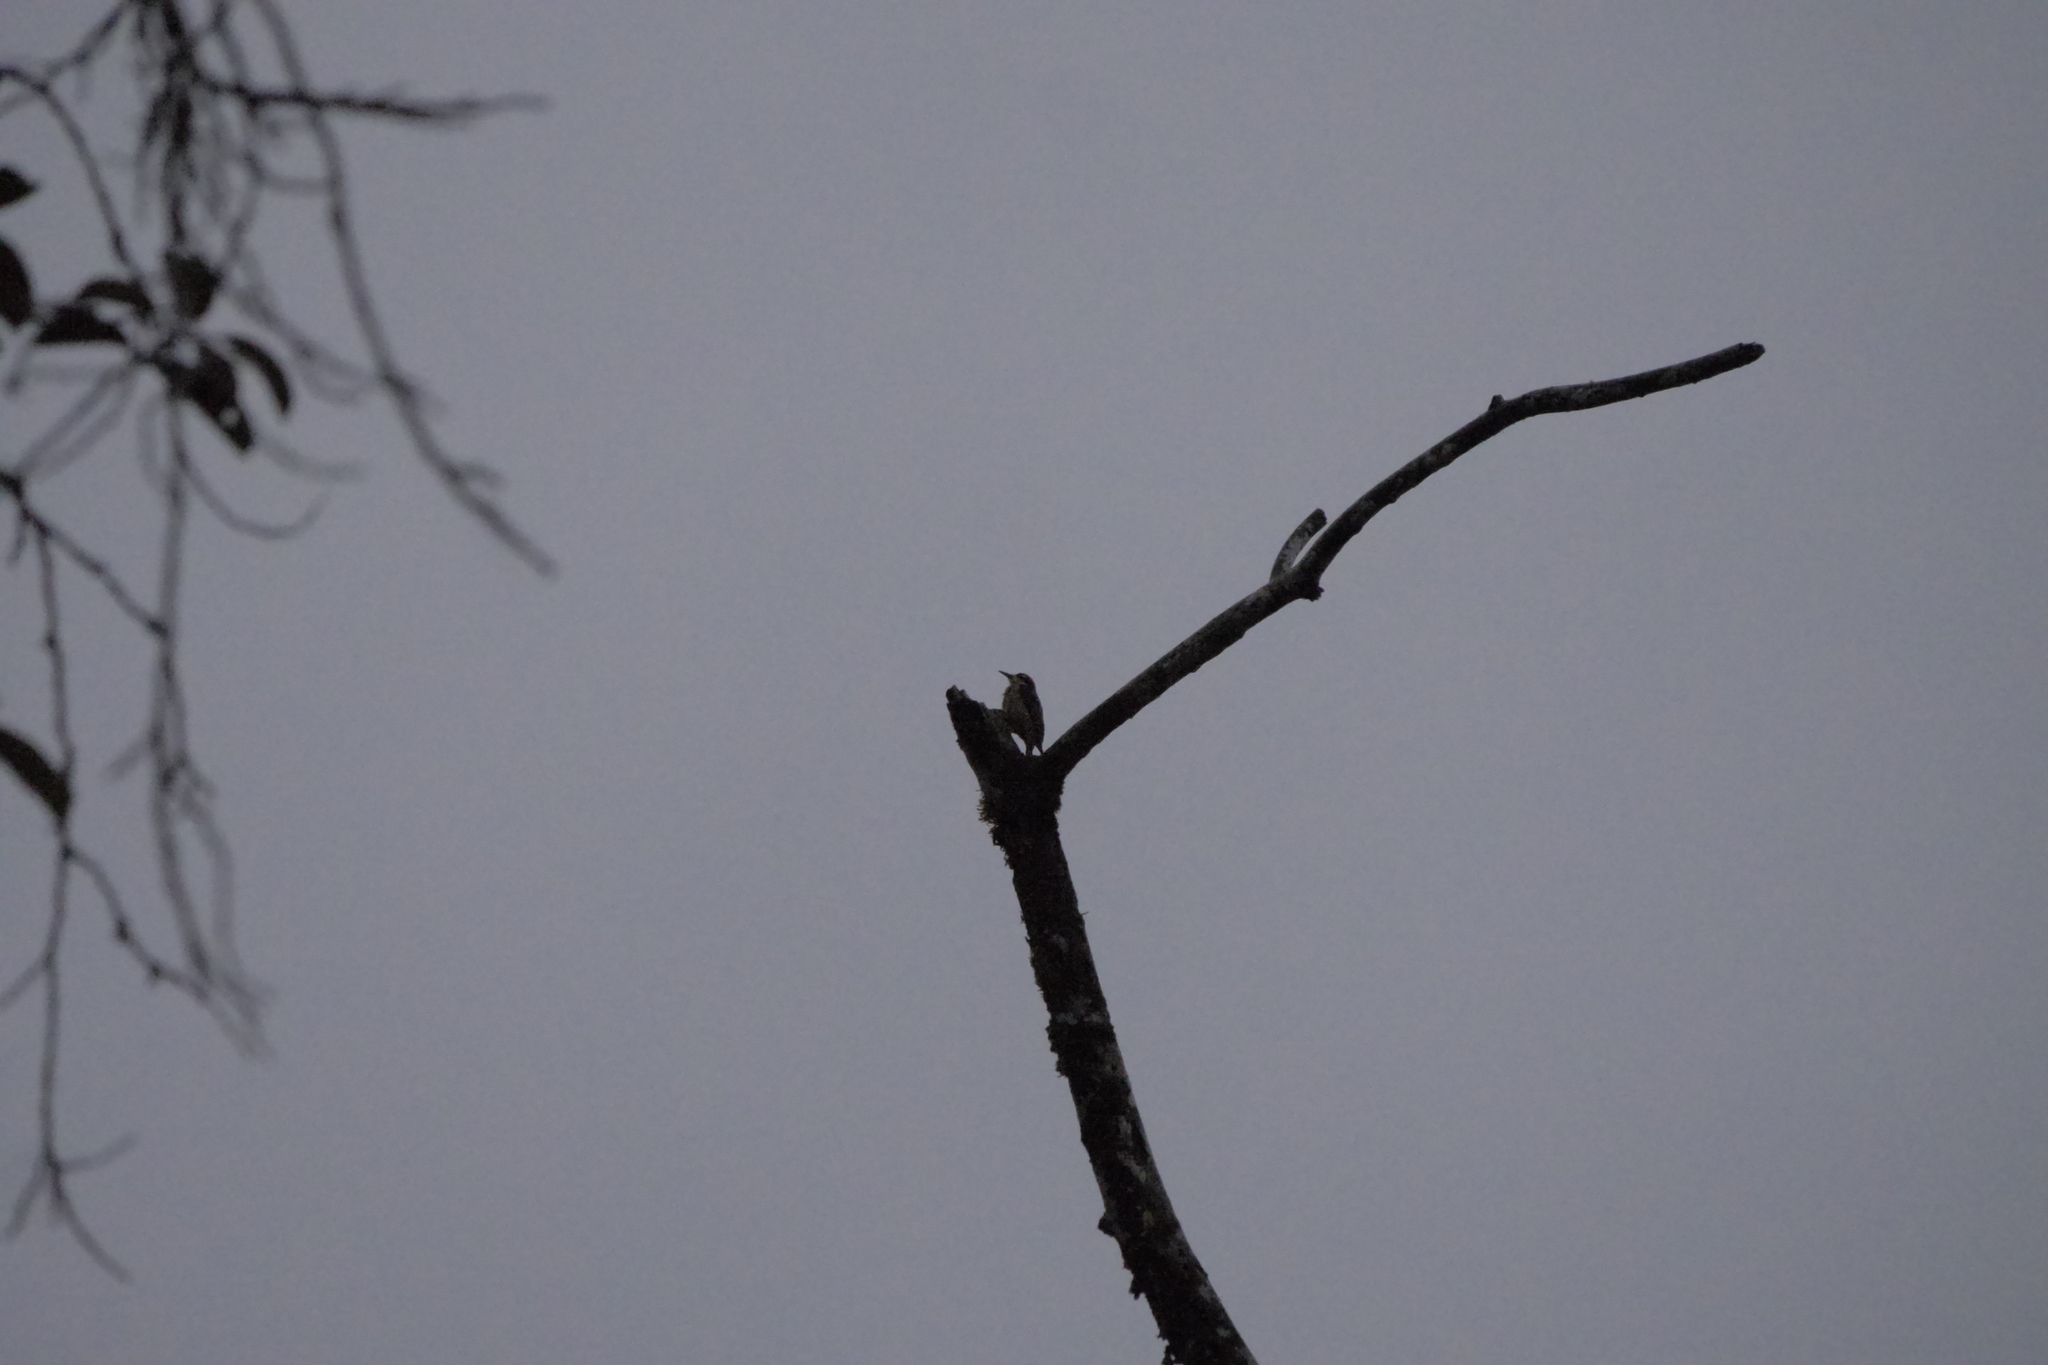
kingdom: Animalia
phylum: Chordata
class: Aves
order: Piciformes
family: Picidae
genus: Melanerpes
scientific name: Melanerpes pucherani
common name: Black-cheeked woodpecker
